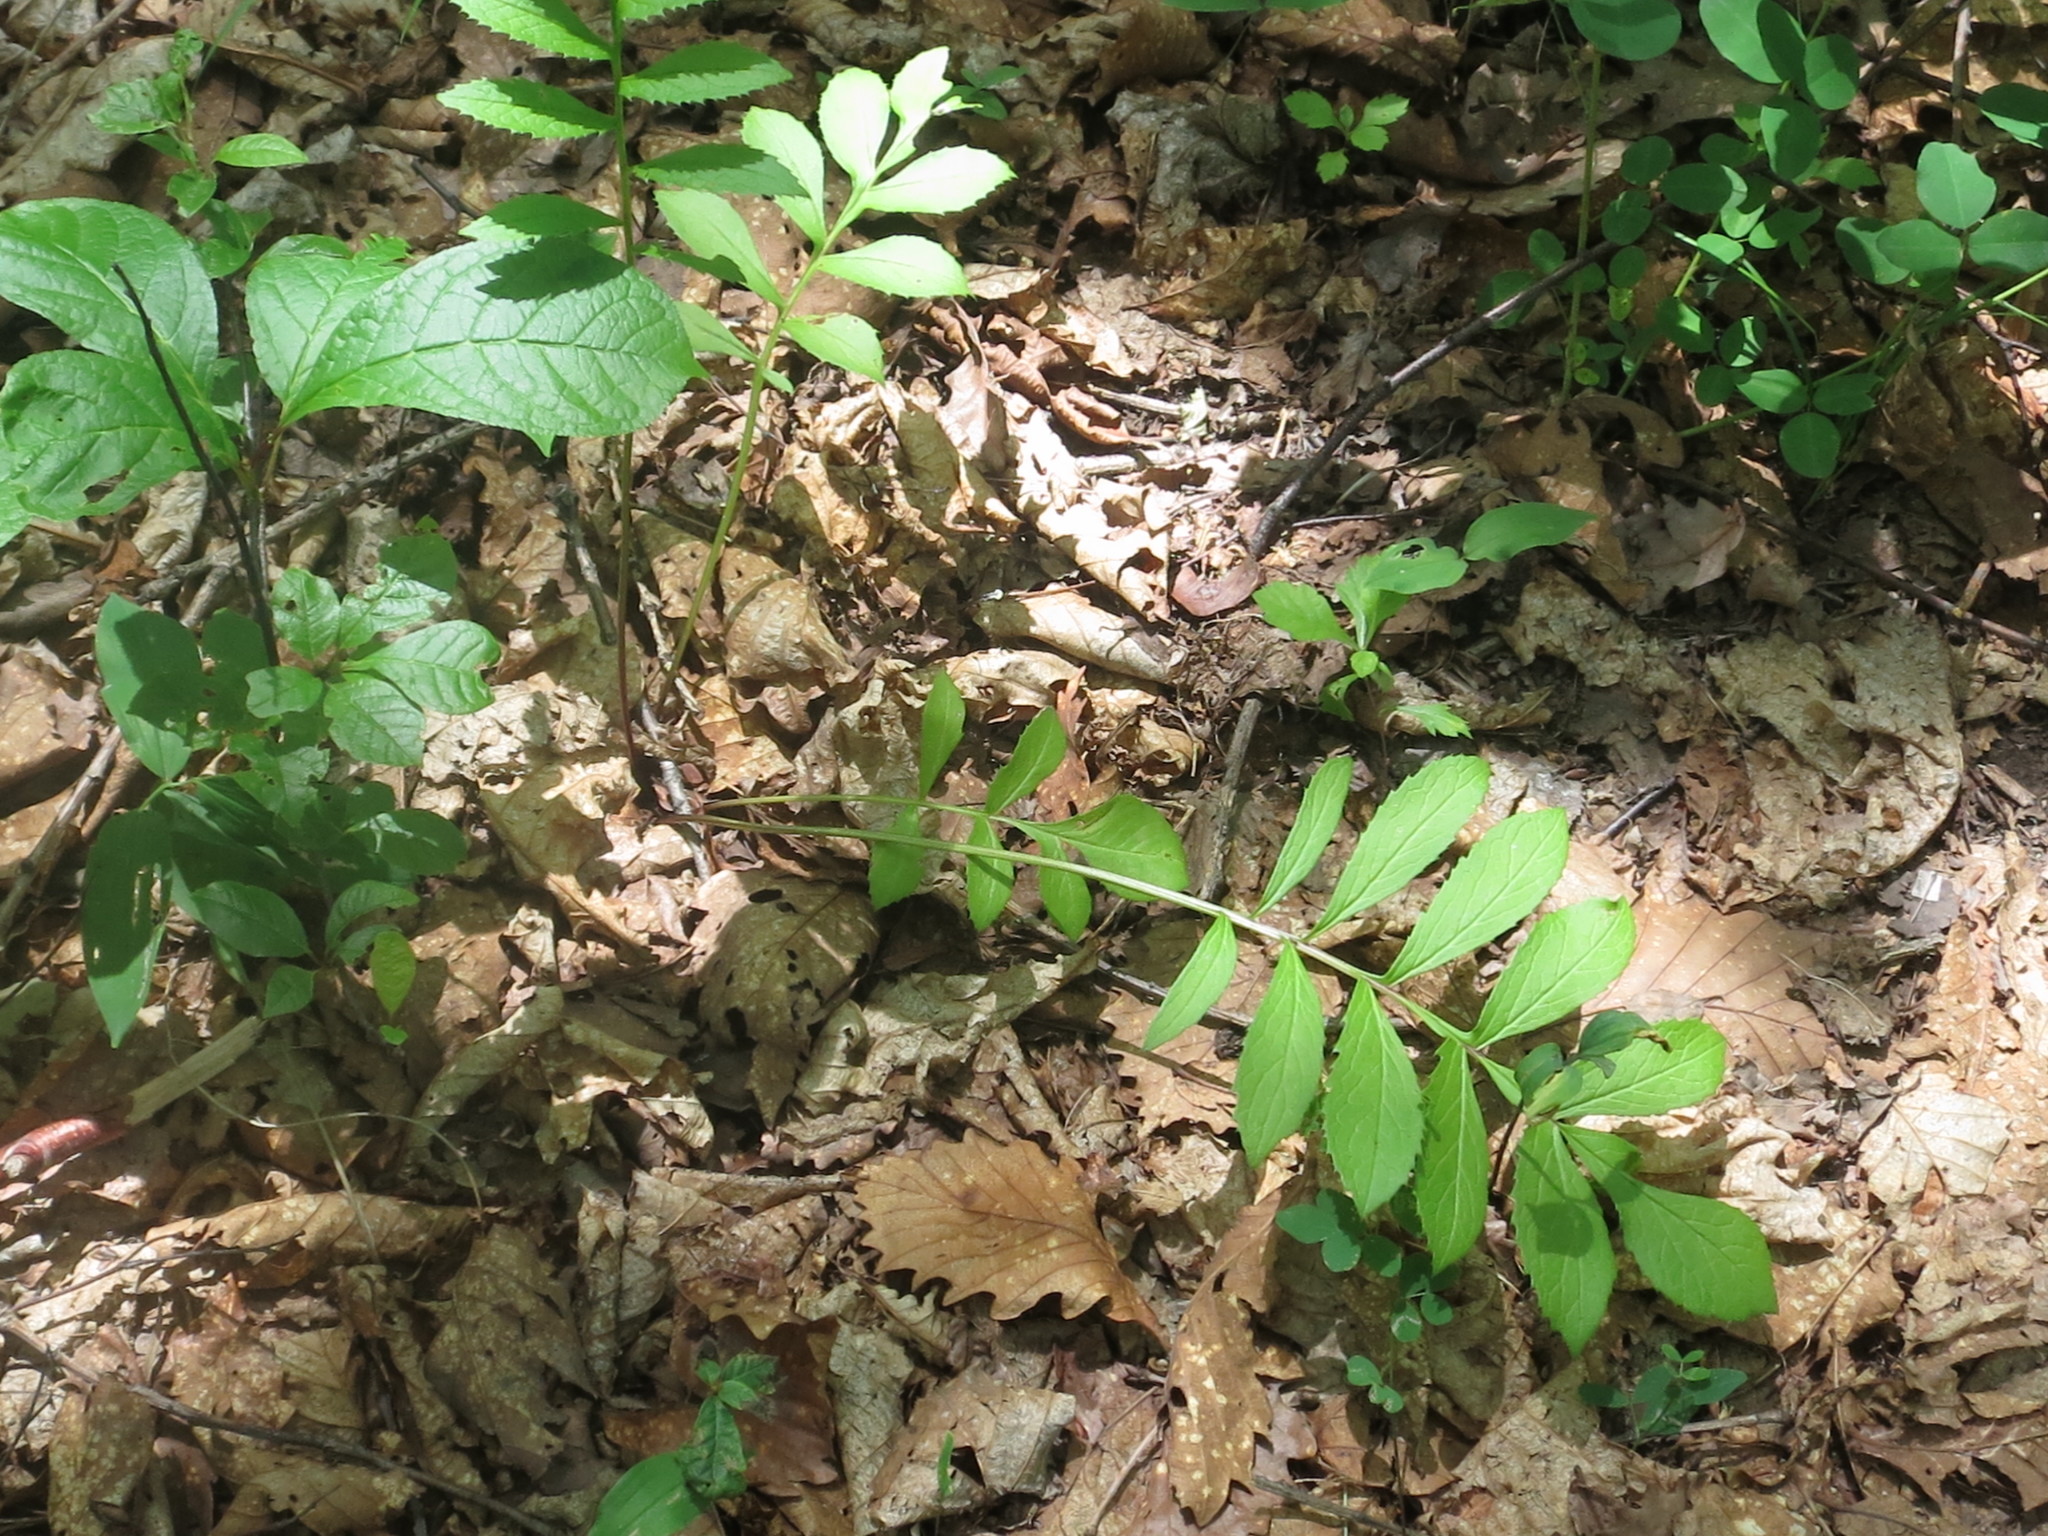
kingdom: Plantae
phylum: Tracheophyta
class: Magnoliopsida
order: Asterales
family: Asteraceae
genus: Serratula
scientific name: Serratula coronata
